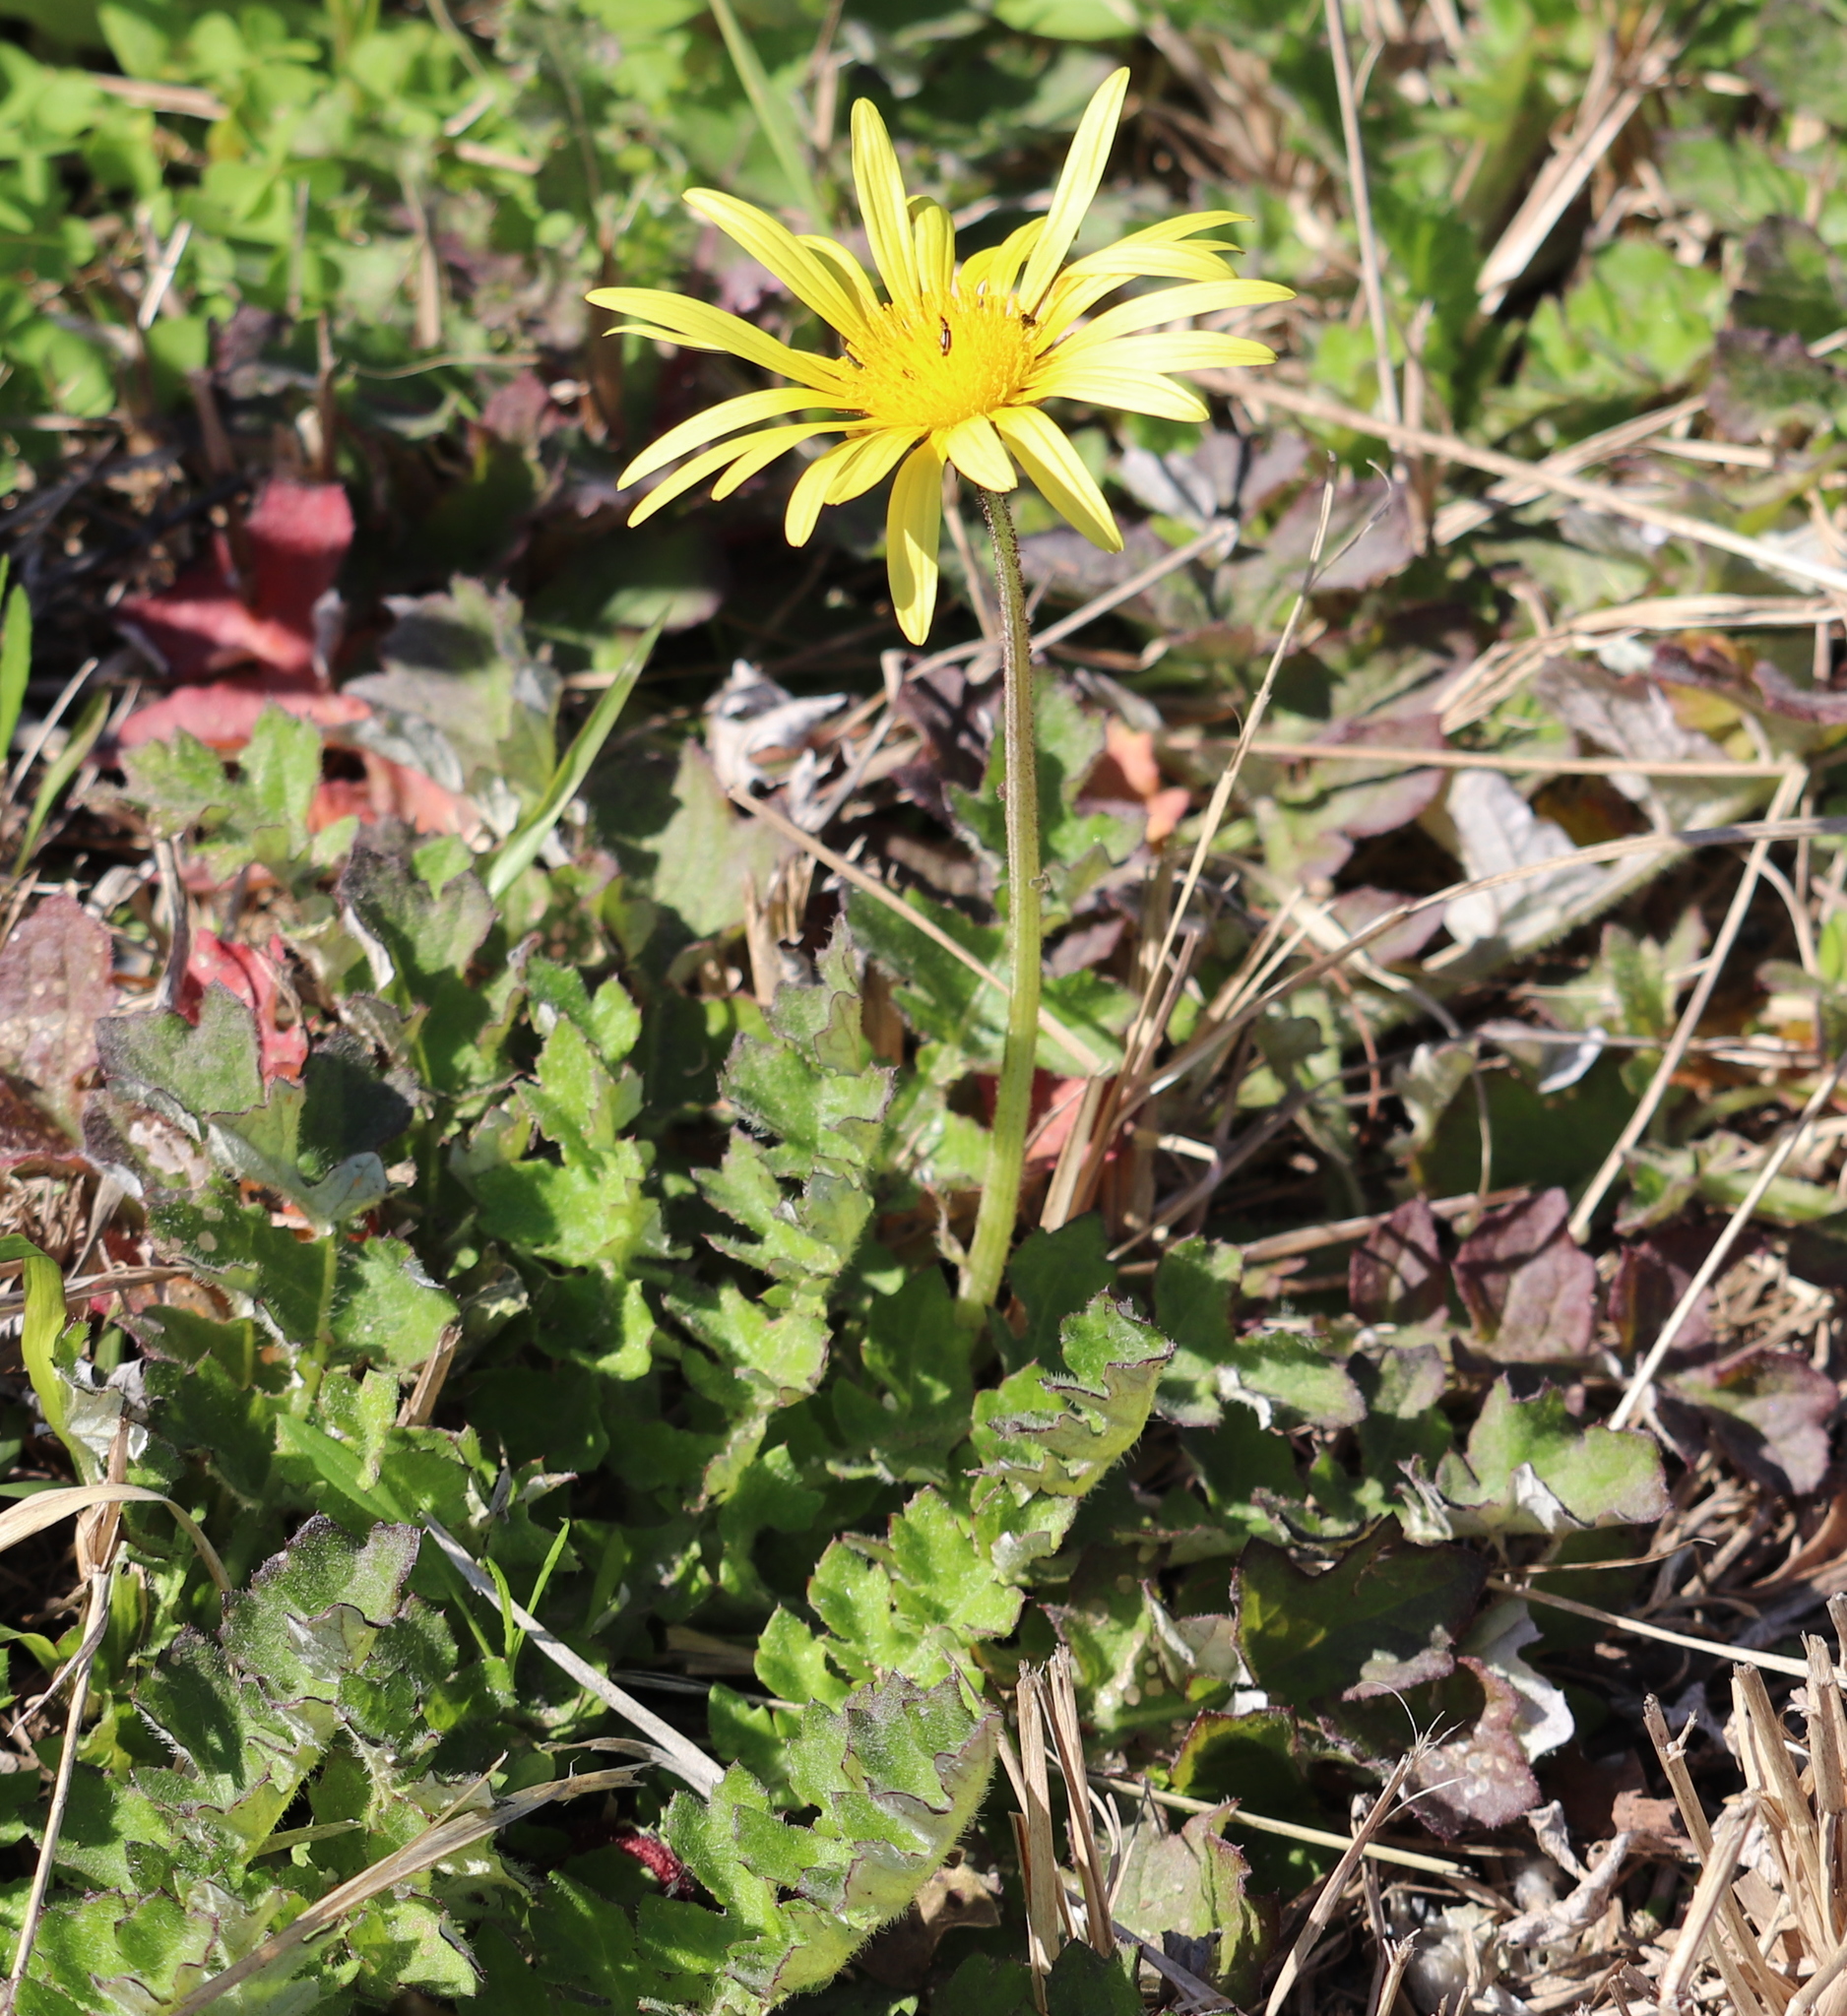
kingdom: Plantae
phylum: Tracheophyta
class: Magnoliopsida
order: Asterales
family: Asteraceae
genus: Arctotheca
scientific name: Arctotheca prostrata
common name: Capeweed
